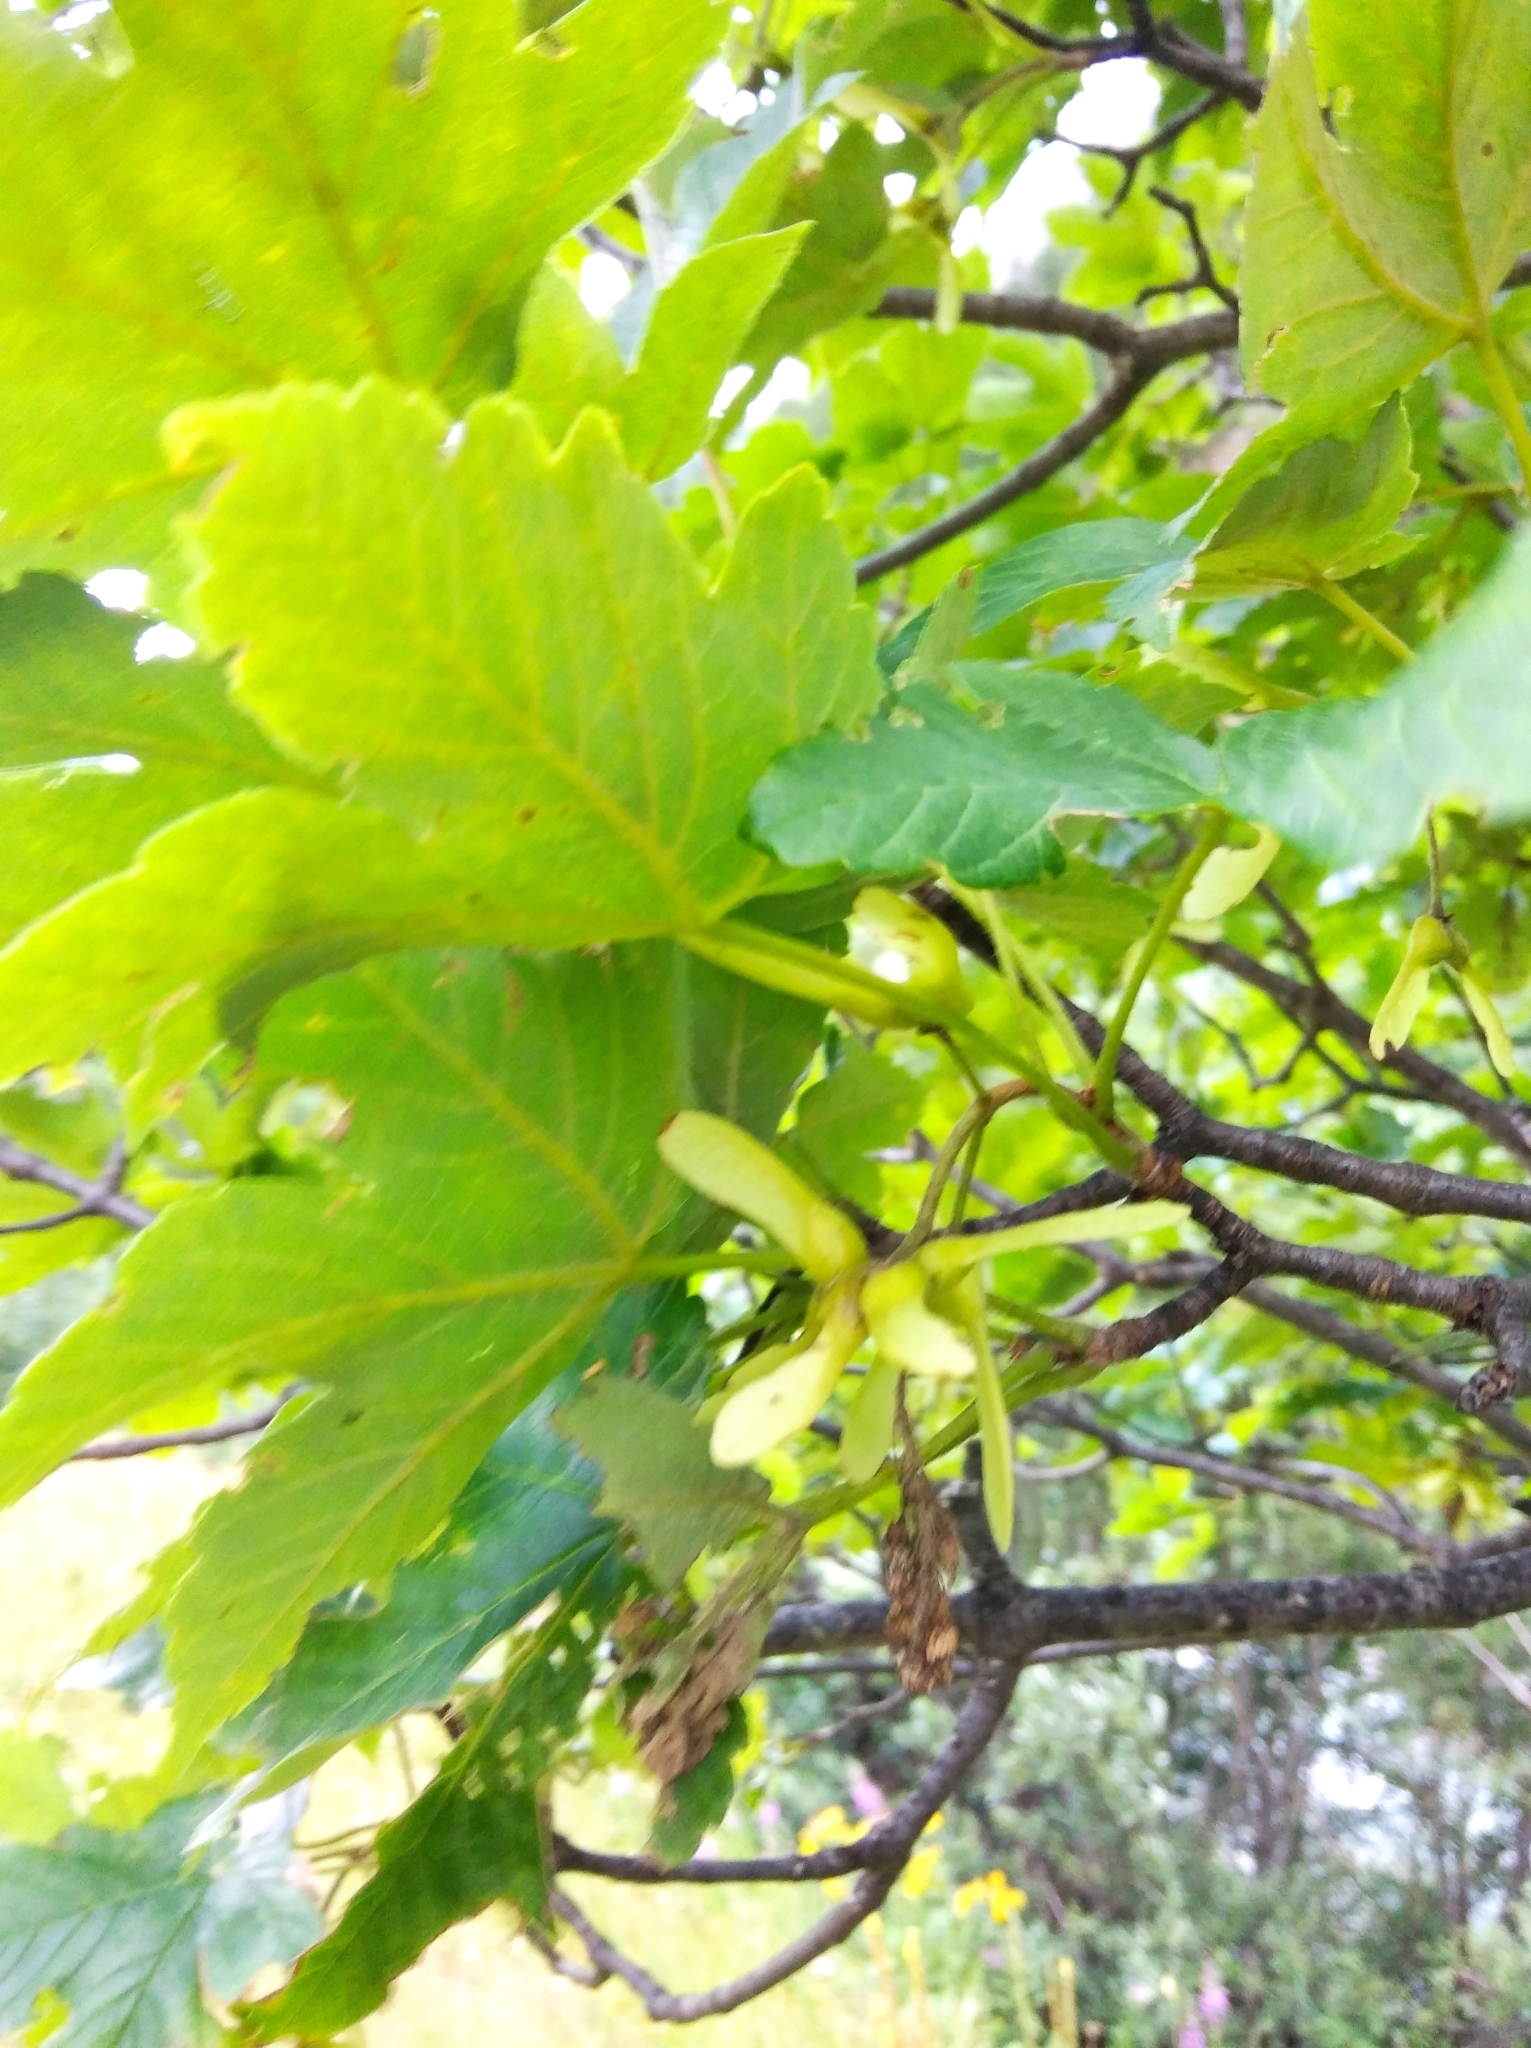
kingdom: Plantae
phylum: Tracheophyta
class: Magnoliopsida
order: Sapindales
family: Sapindaceae
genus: Acer
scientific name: Acer pseudoplatanus
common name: Sycamore
